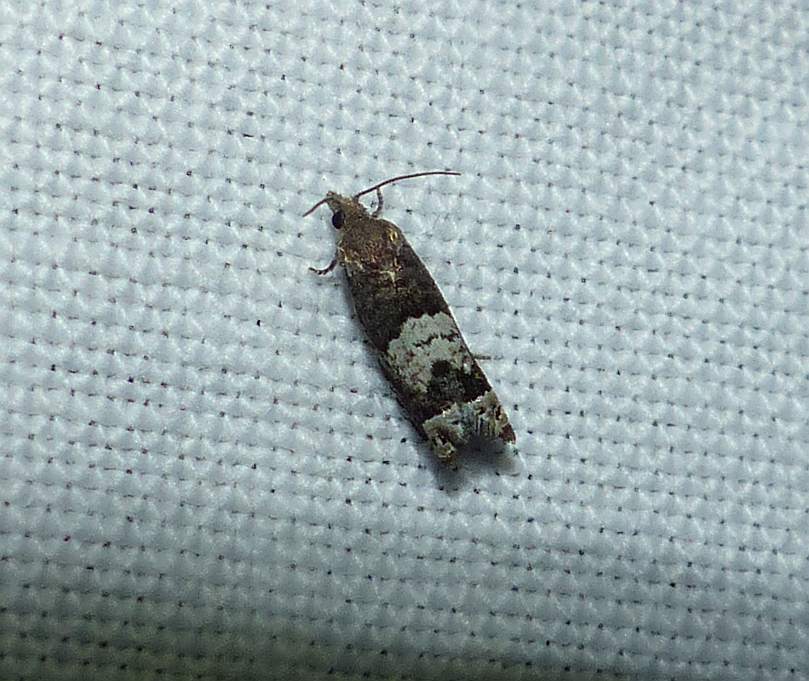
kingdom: Animalia
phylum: Arthropoda
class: Insecta
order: Lepidoptera
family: Tortricidae
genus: Eucosma
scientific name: Eucosma parmatana
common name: Aster eucosma moth
